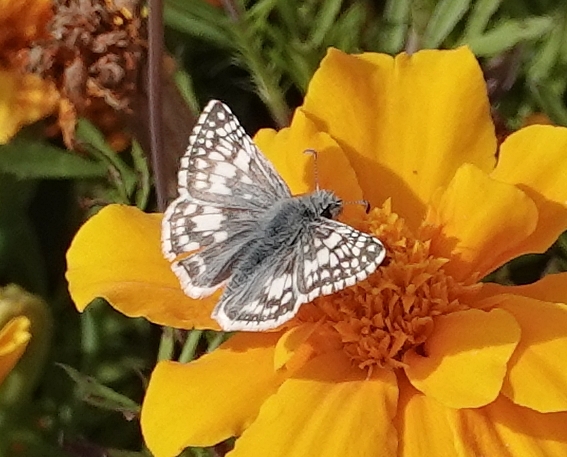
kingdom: Animalia
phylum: Arthropoda
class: Insecta
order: Lepidoptera
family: Hesperiidae
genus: Burnsius
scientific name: Burnsius communis
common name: Common checkered-skipper
